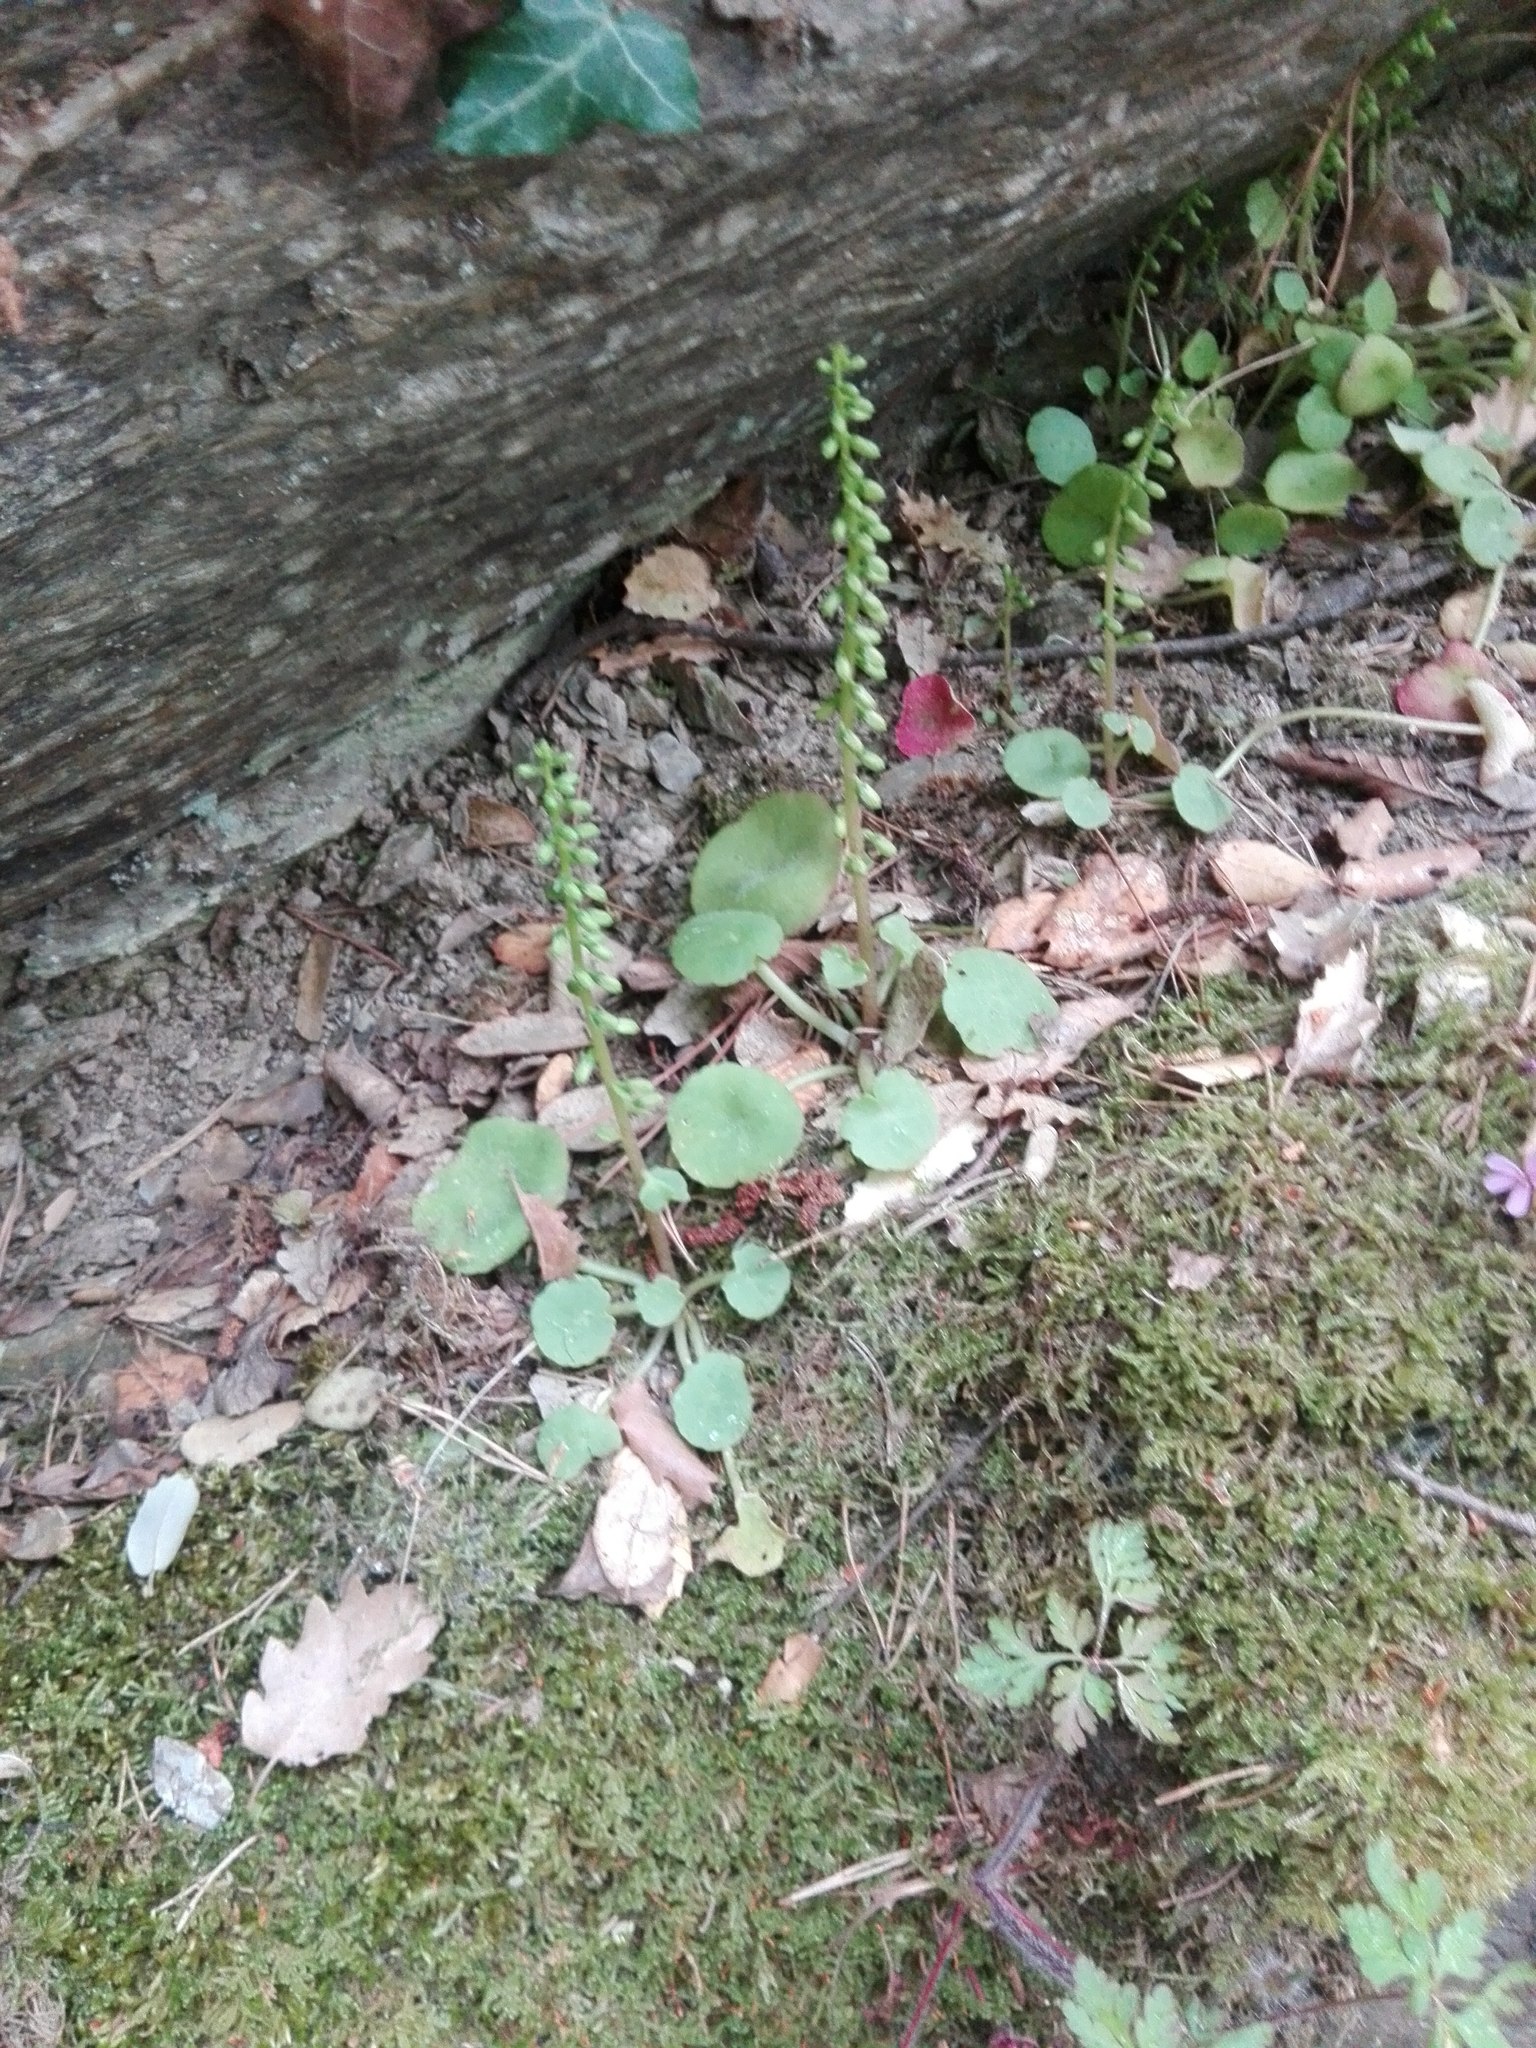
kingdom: Plantae
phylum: Tracheophyta
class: Magnoliopsida
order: Saxifragales
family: Crassulaceae
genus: Umbilicus
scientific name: Umbilicus rupestris
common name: Navelwort
